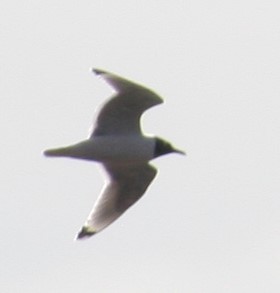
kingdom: Animalia
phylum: Chordata
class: Aves
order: Charadriiformes
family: Laridae
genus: Leucophaeus
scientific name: Leucophaeus pipixcan
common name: Franklin's gull
